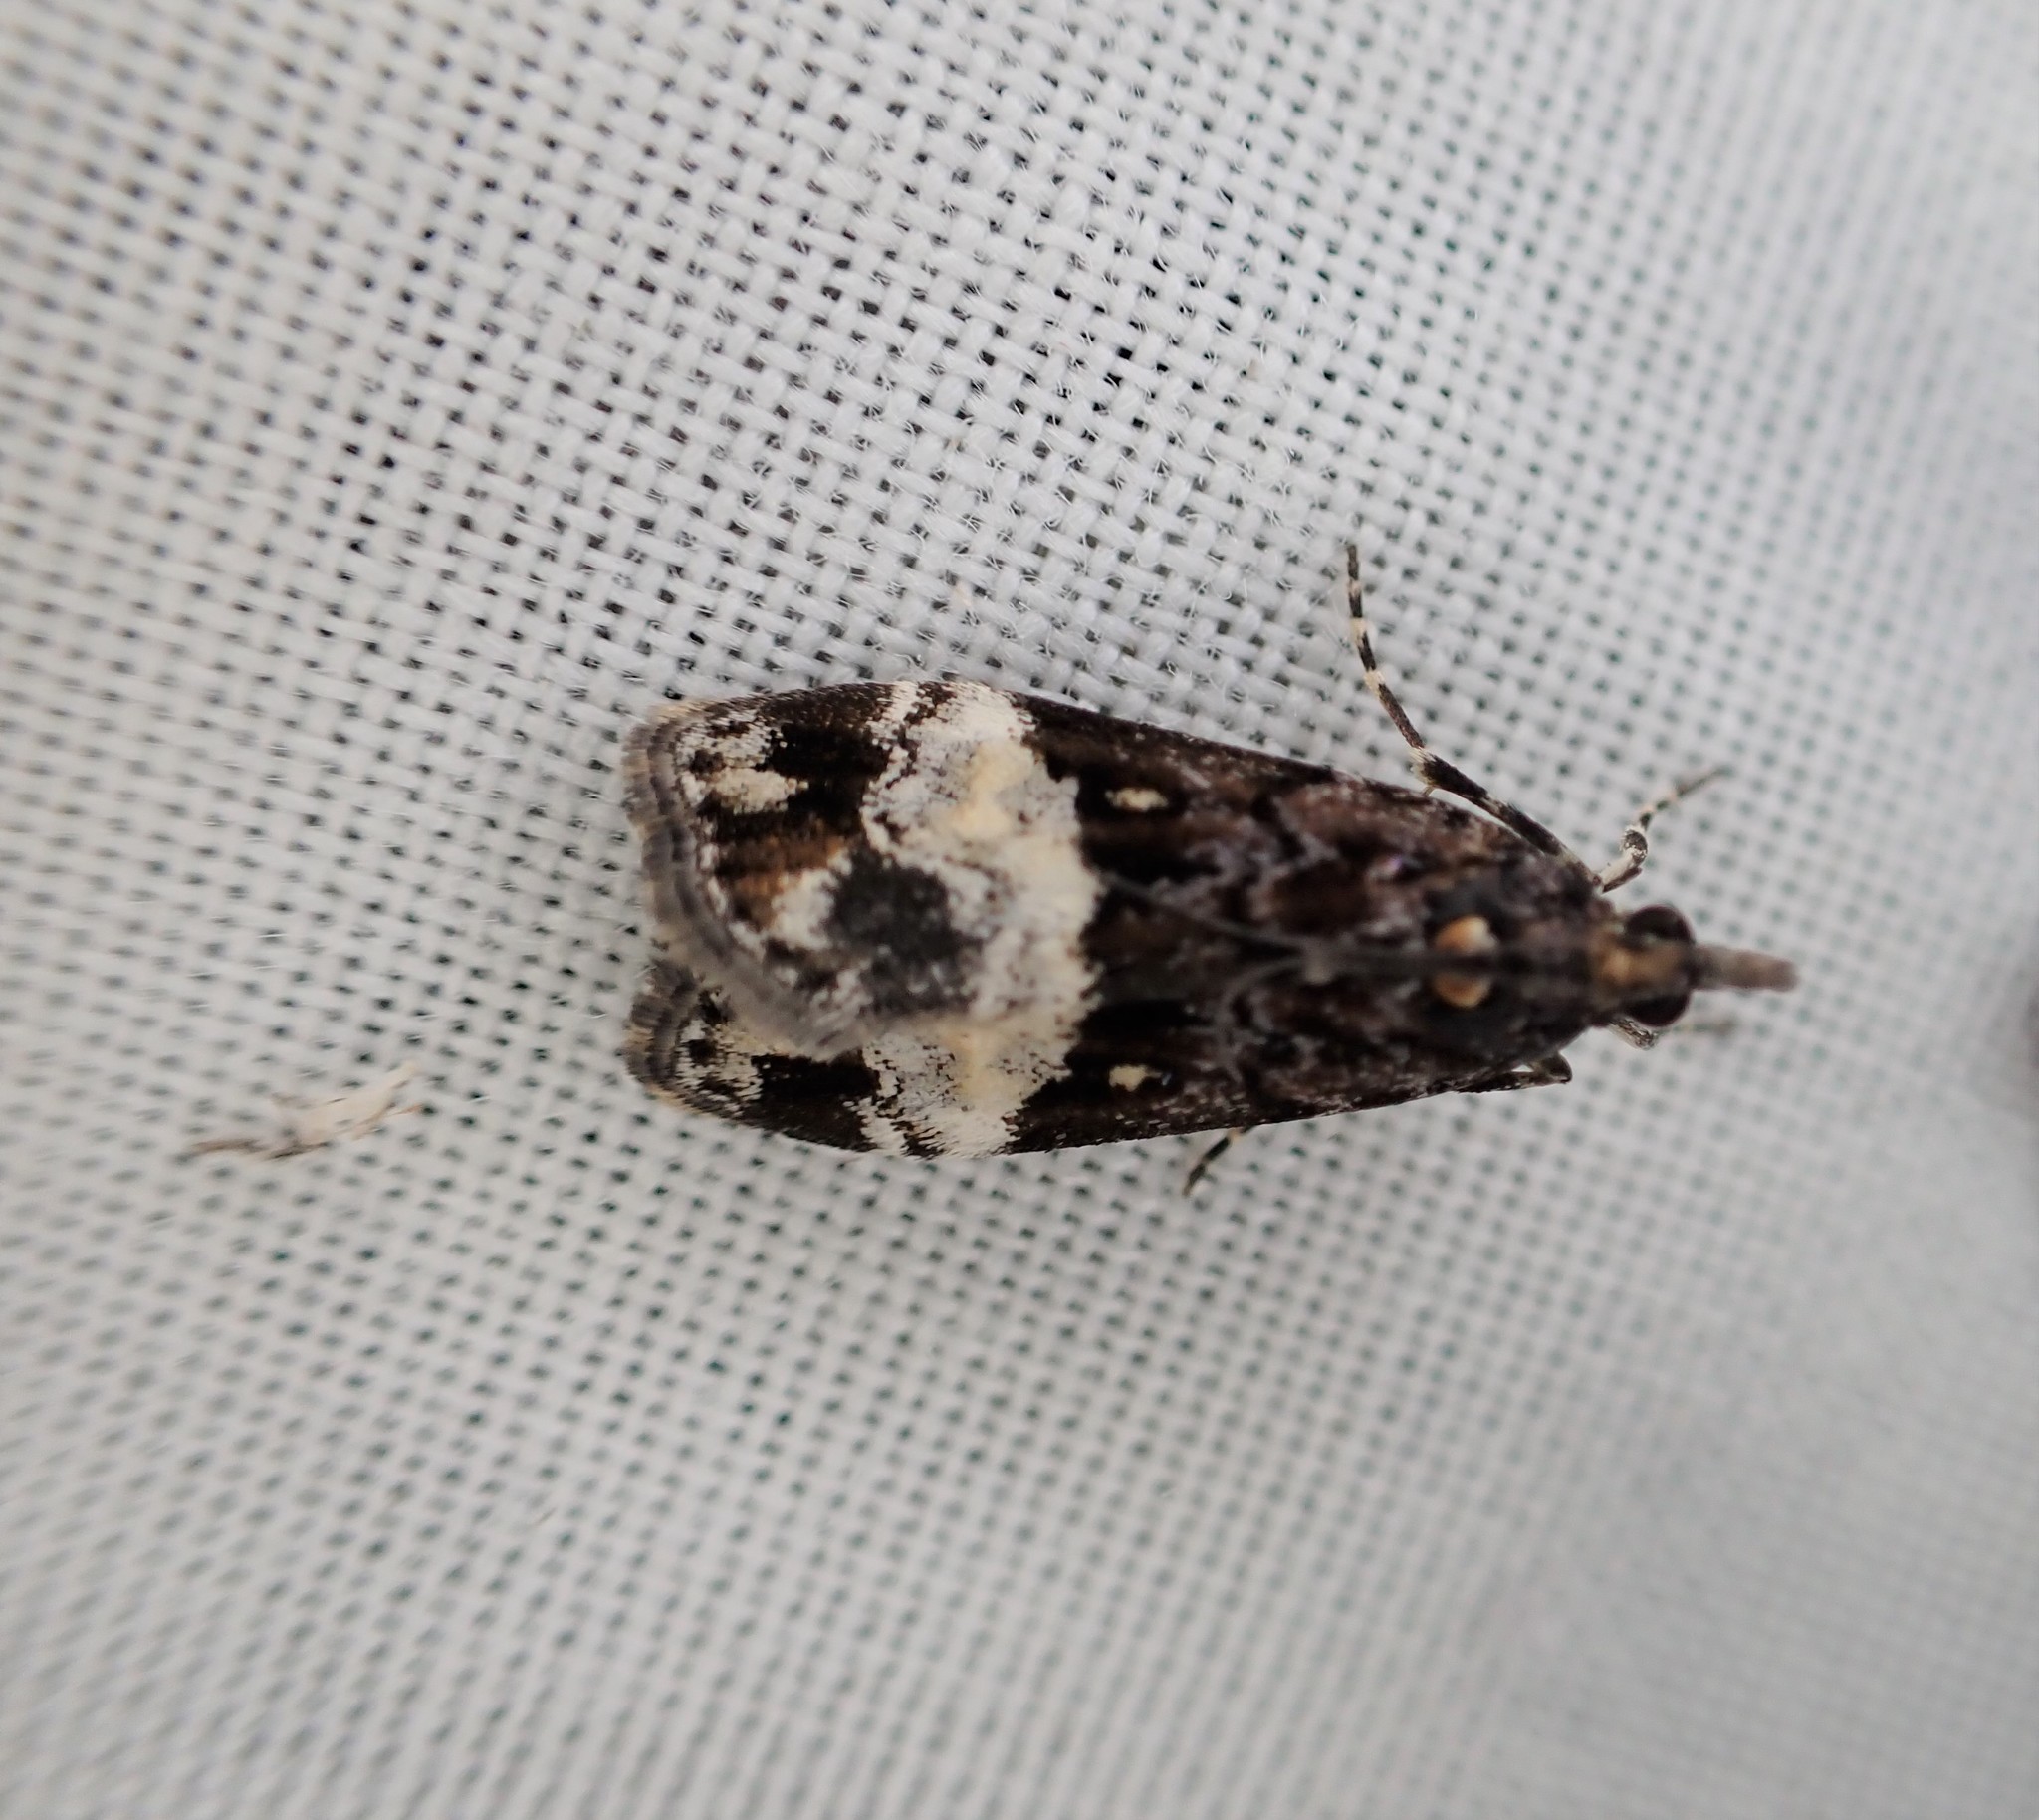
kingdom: Animalia
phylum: Arthropoda
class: Insecta
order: Lepidoptera
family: Crambidae
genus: Scoparia
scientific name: Scoparia minusculalis
